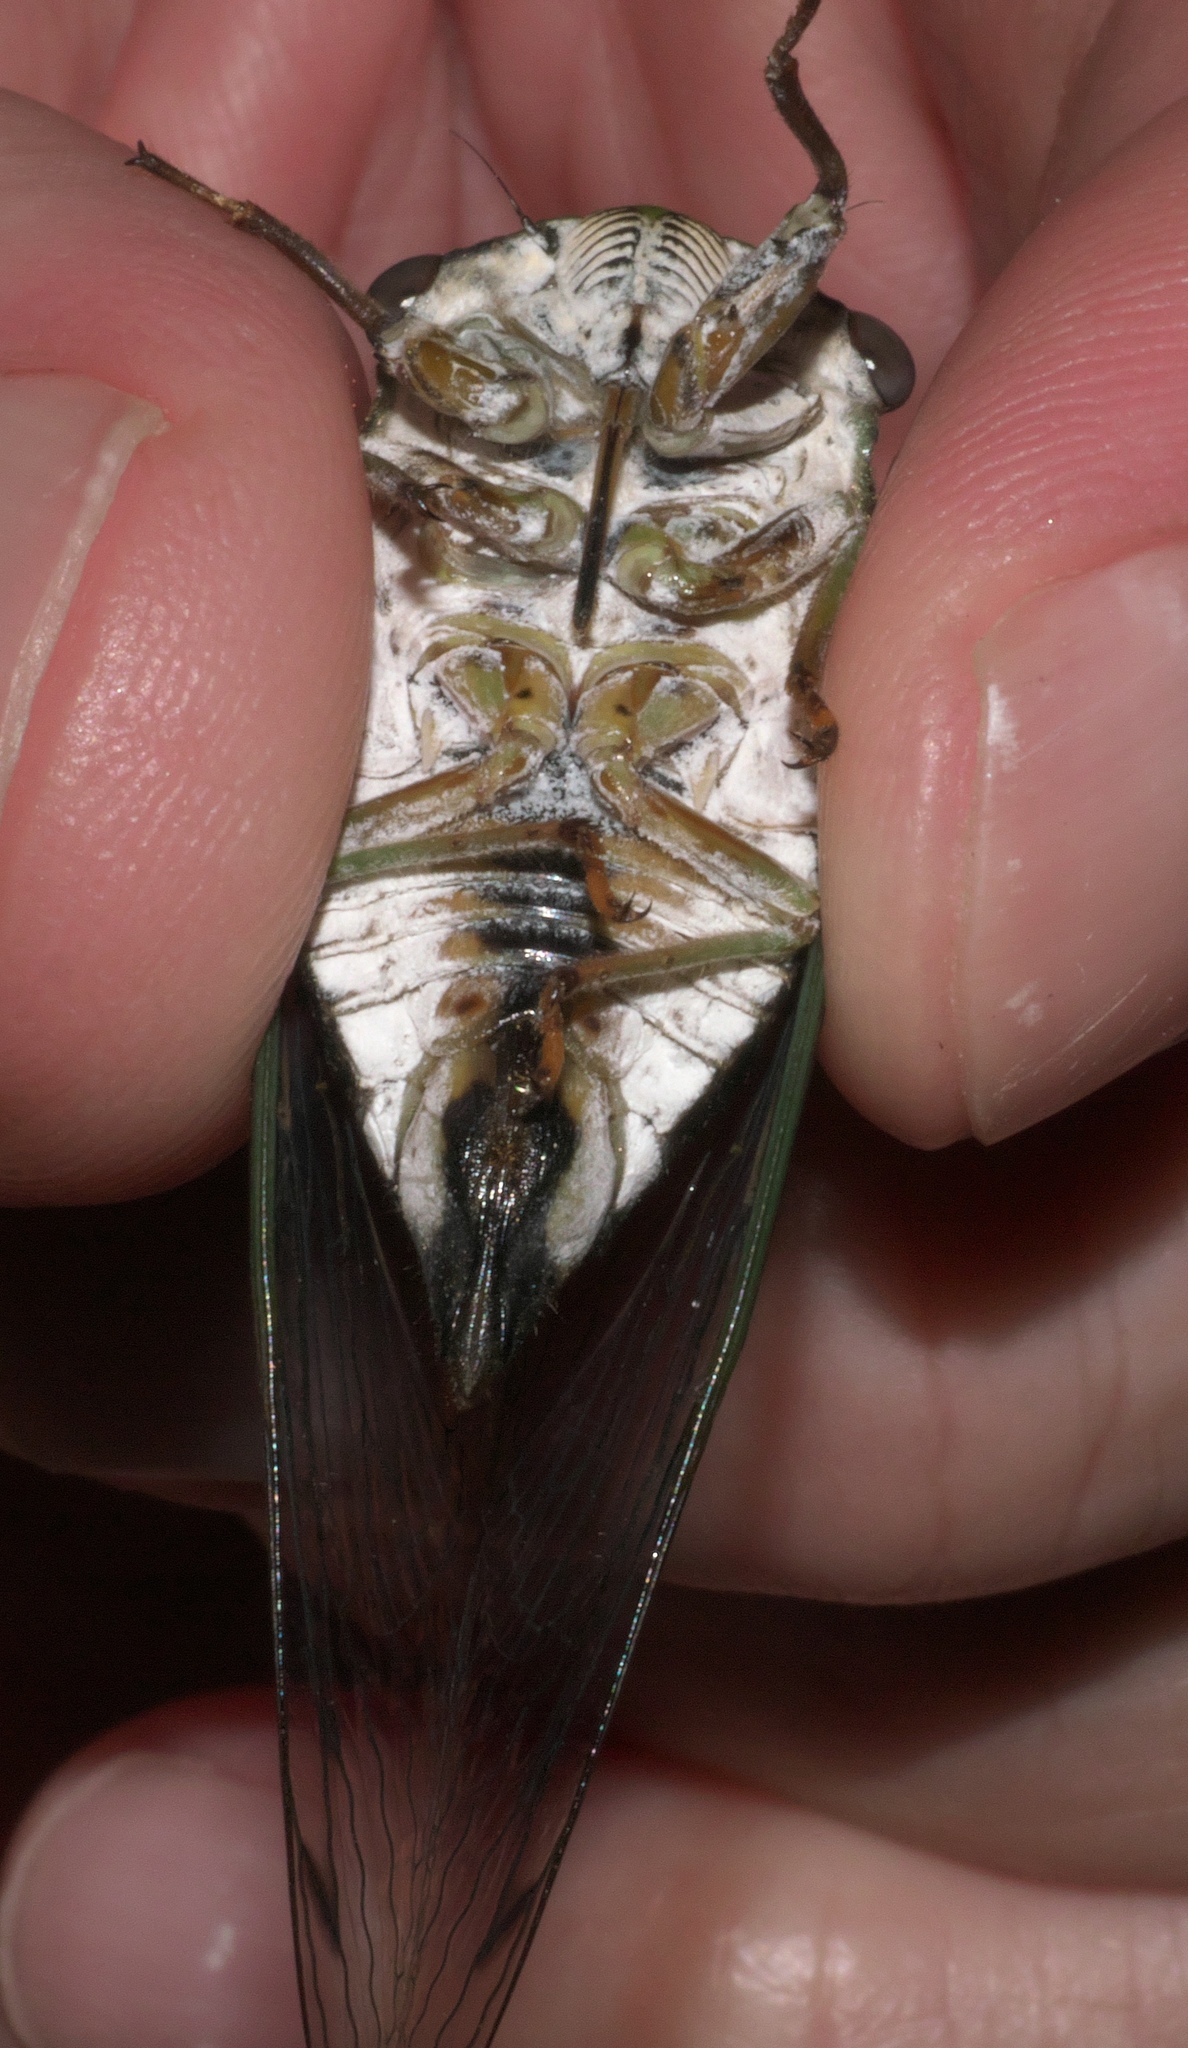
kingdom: Animalia
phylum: Arthropoda
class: Insecta
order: Hemiptera
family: Cicadidae
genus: Neotibicen
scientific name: Neotibicen pruinosus
